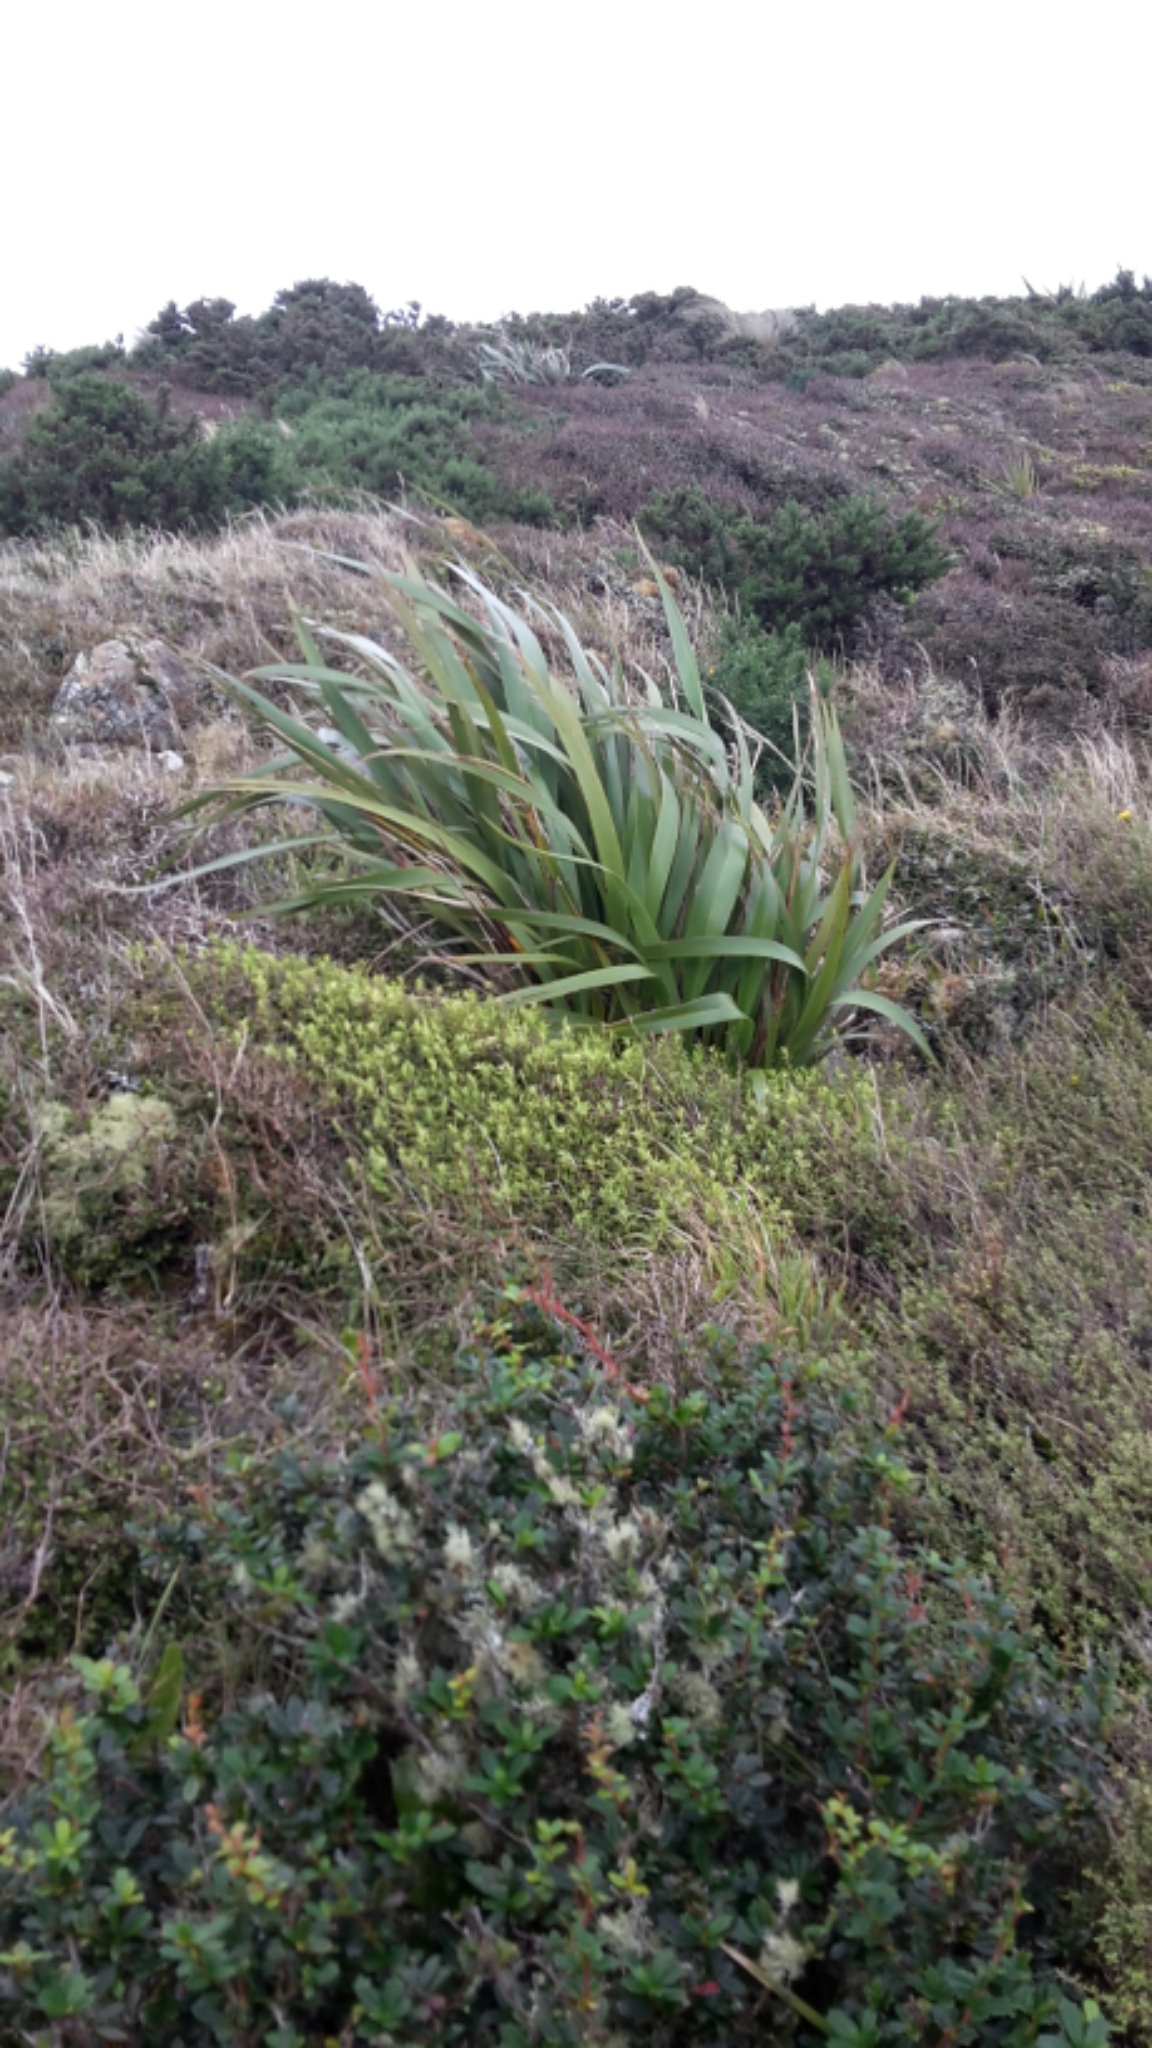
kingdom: Plantae
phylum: Tracheophyta
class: Liliopsida
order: Asparagales
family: Asphodelaceae
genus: Phormium
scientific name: Phormium colensoi
